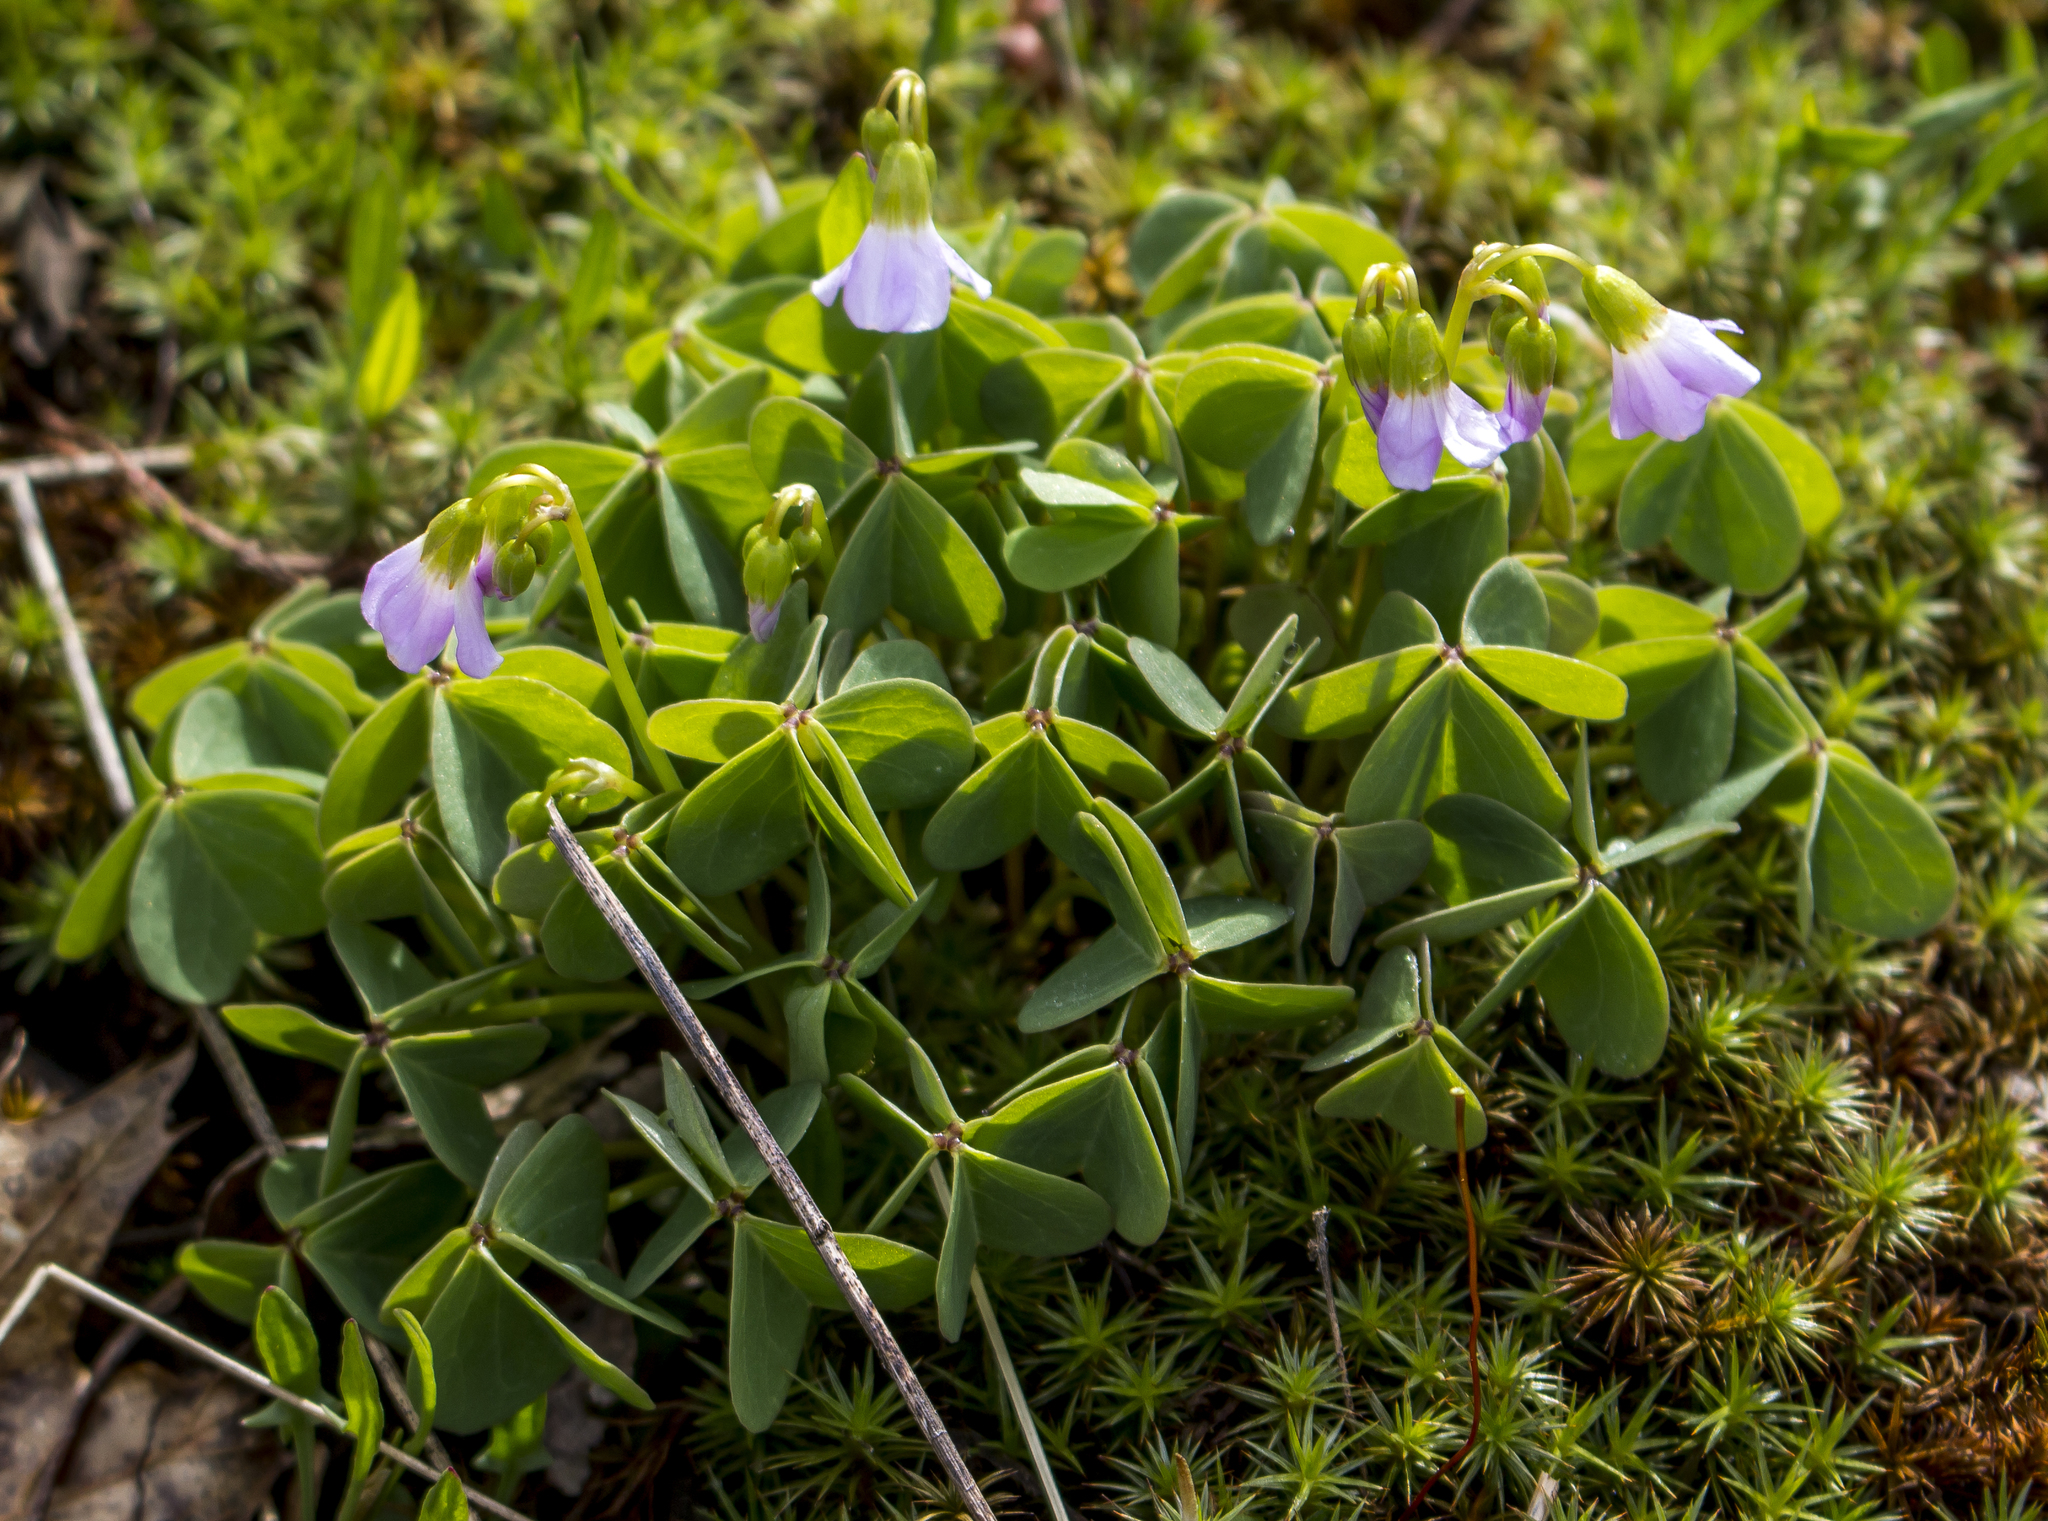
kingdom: Plantae
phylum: Tracheophyta
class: Magnoliopsida
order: Oxalidales
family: Oxalidaceae
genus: Oxalis
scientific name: Oxalis violacea
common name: Violet wood-sorrel
